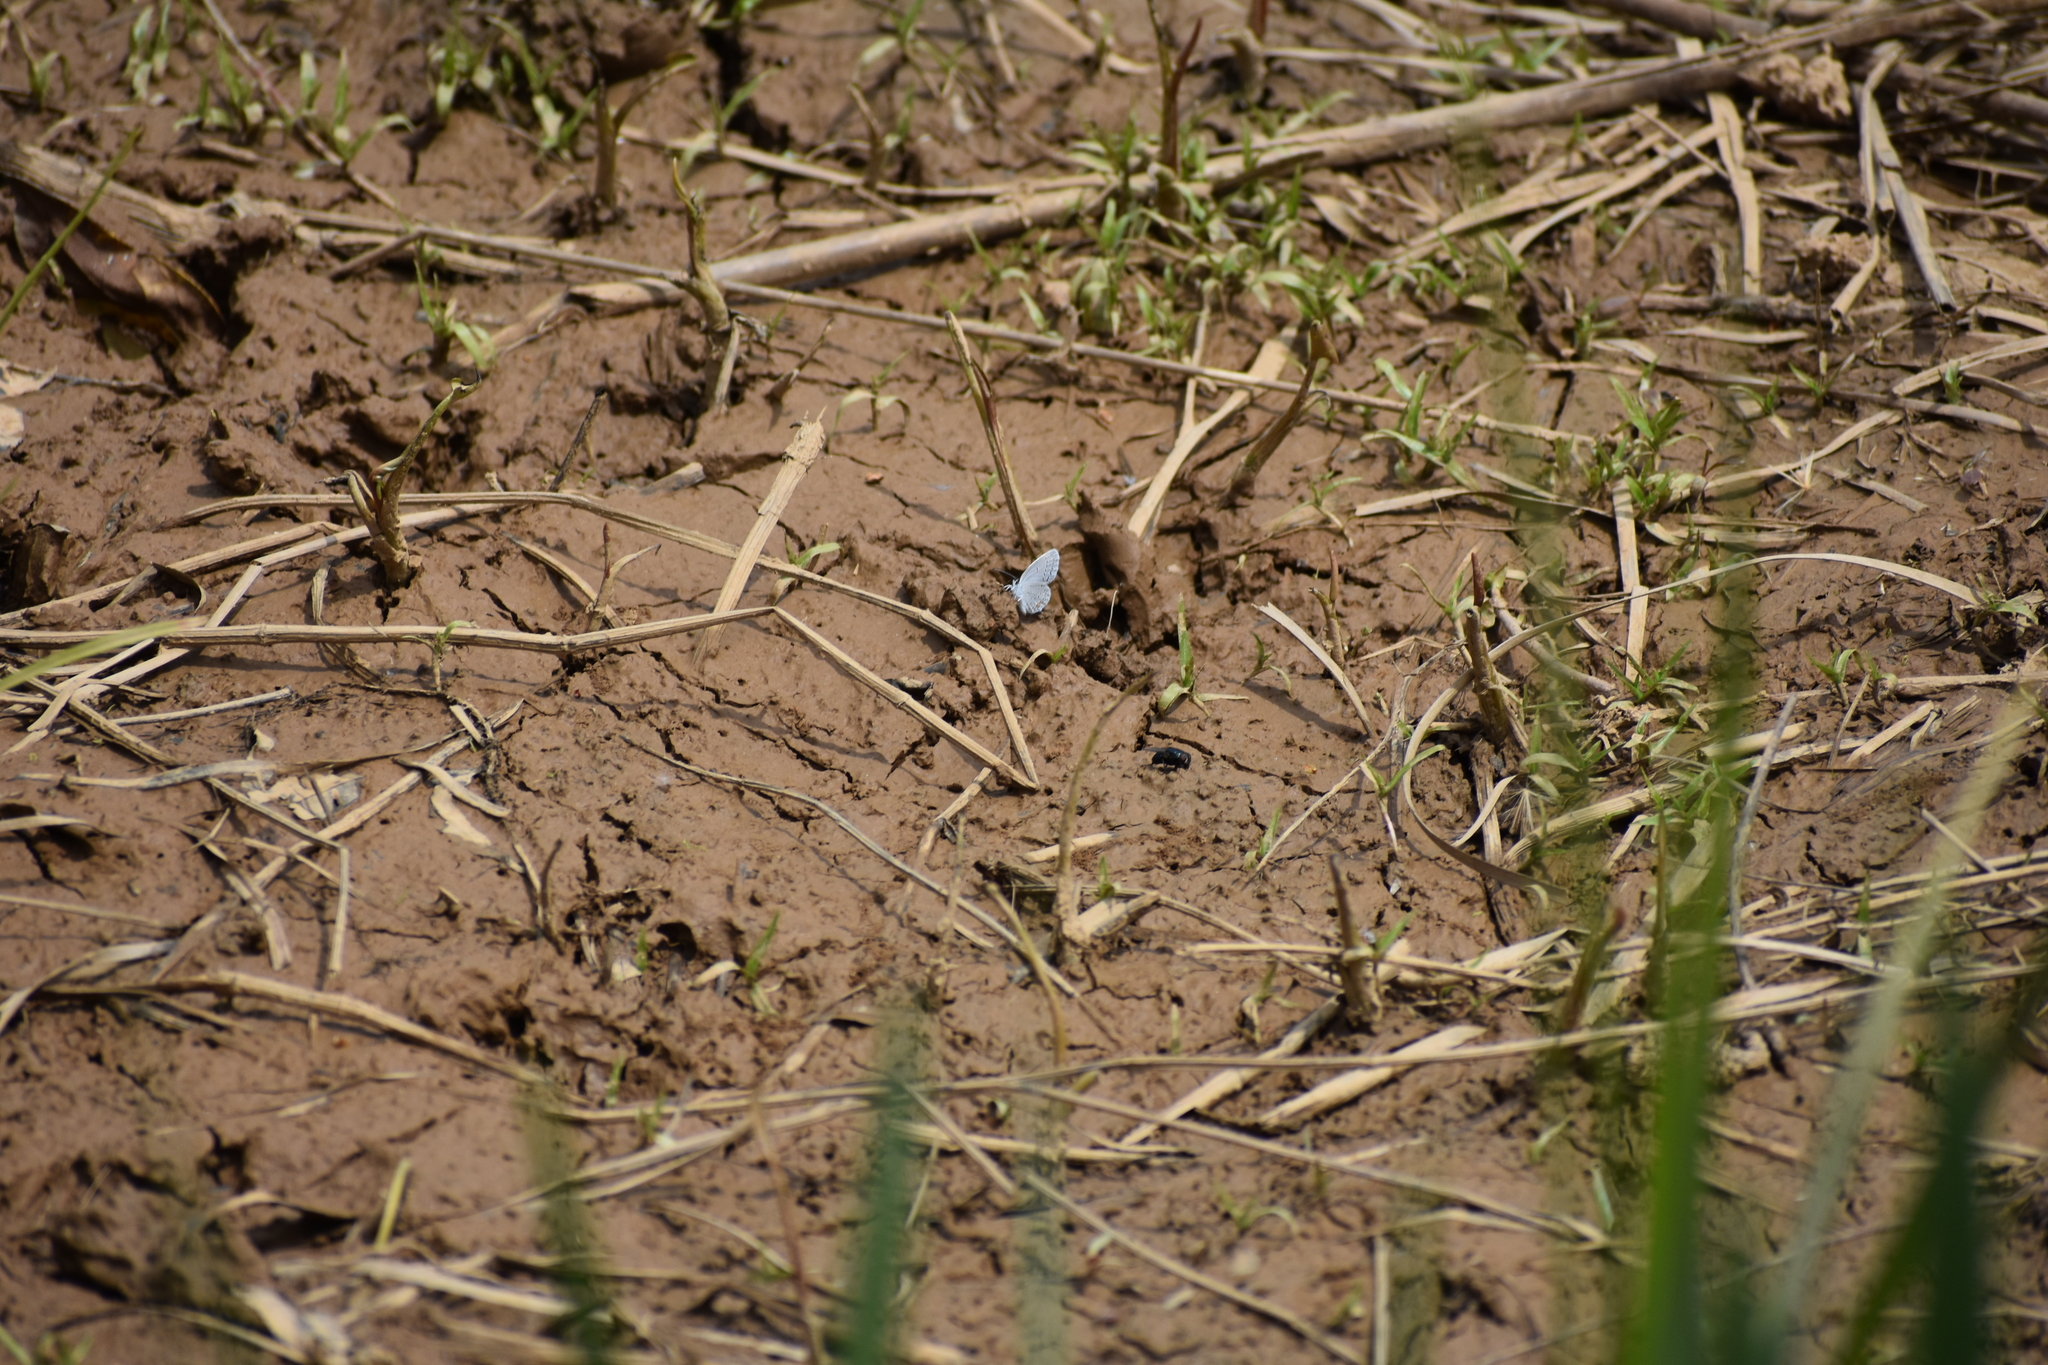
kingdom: Animalia
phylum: Arthropoda
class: Insecta
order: Lepidoptera
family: Lycaenidae
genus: Elkalyce
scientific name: Elkalyce comyntas
